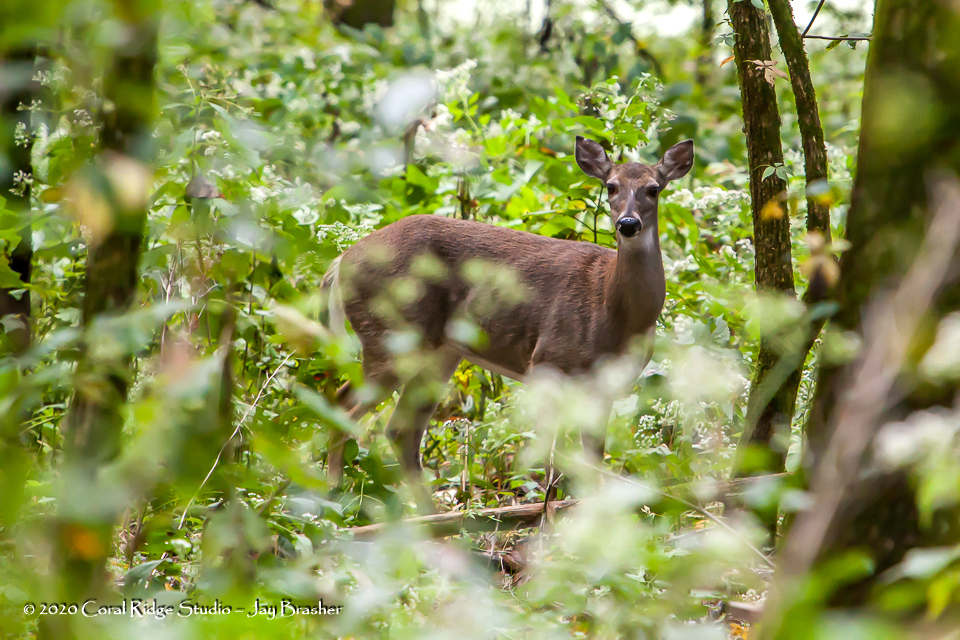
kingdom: Animalia
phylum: Chordata
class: Mammalia
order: Artiodactyla
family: Cervidae
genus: Odocoileus
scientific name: Odocoileus virginianus
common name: White-tailed deer
